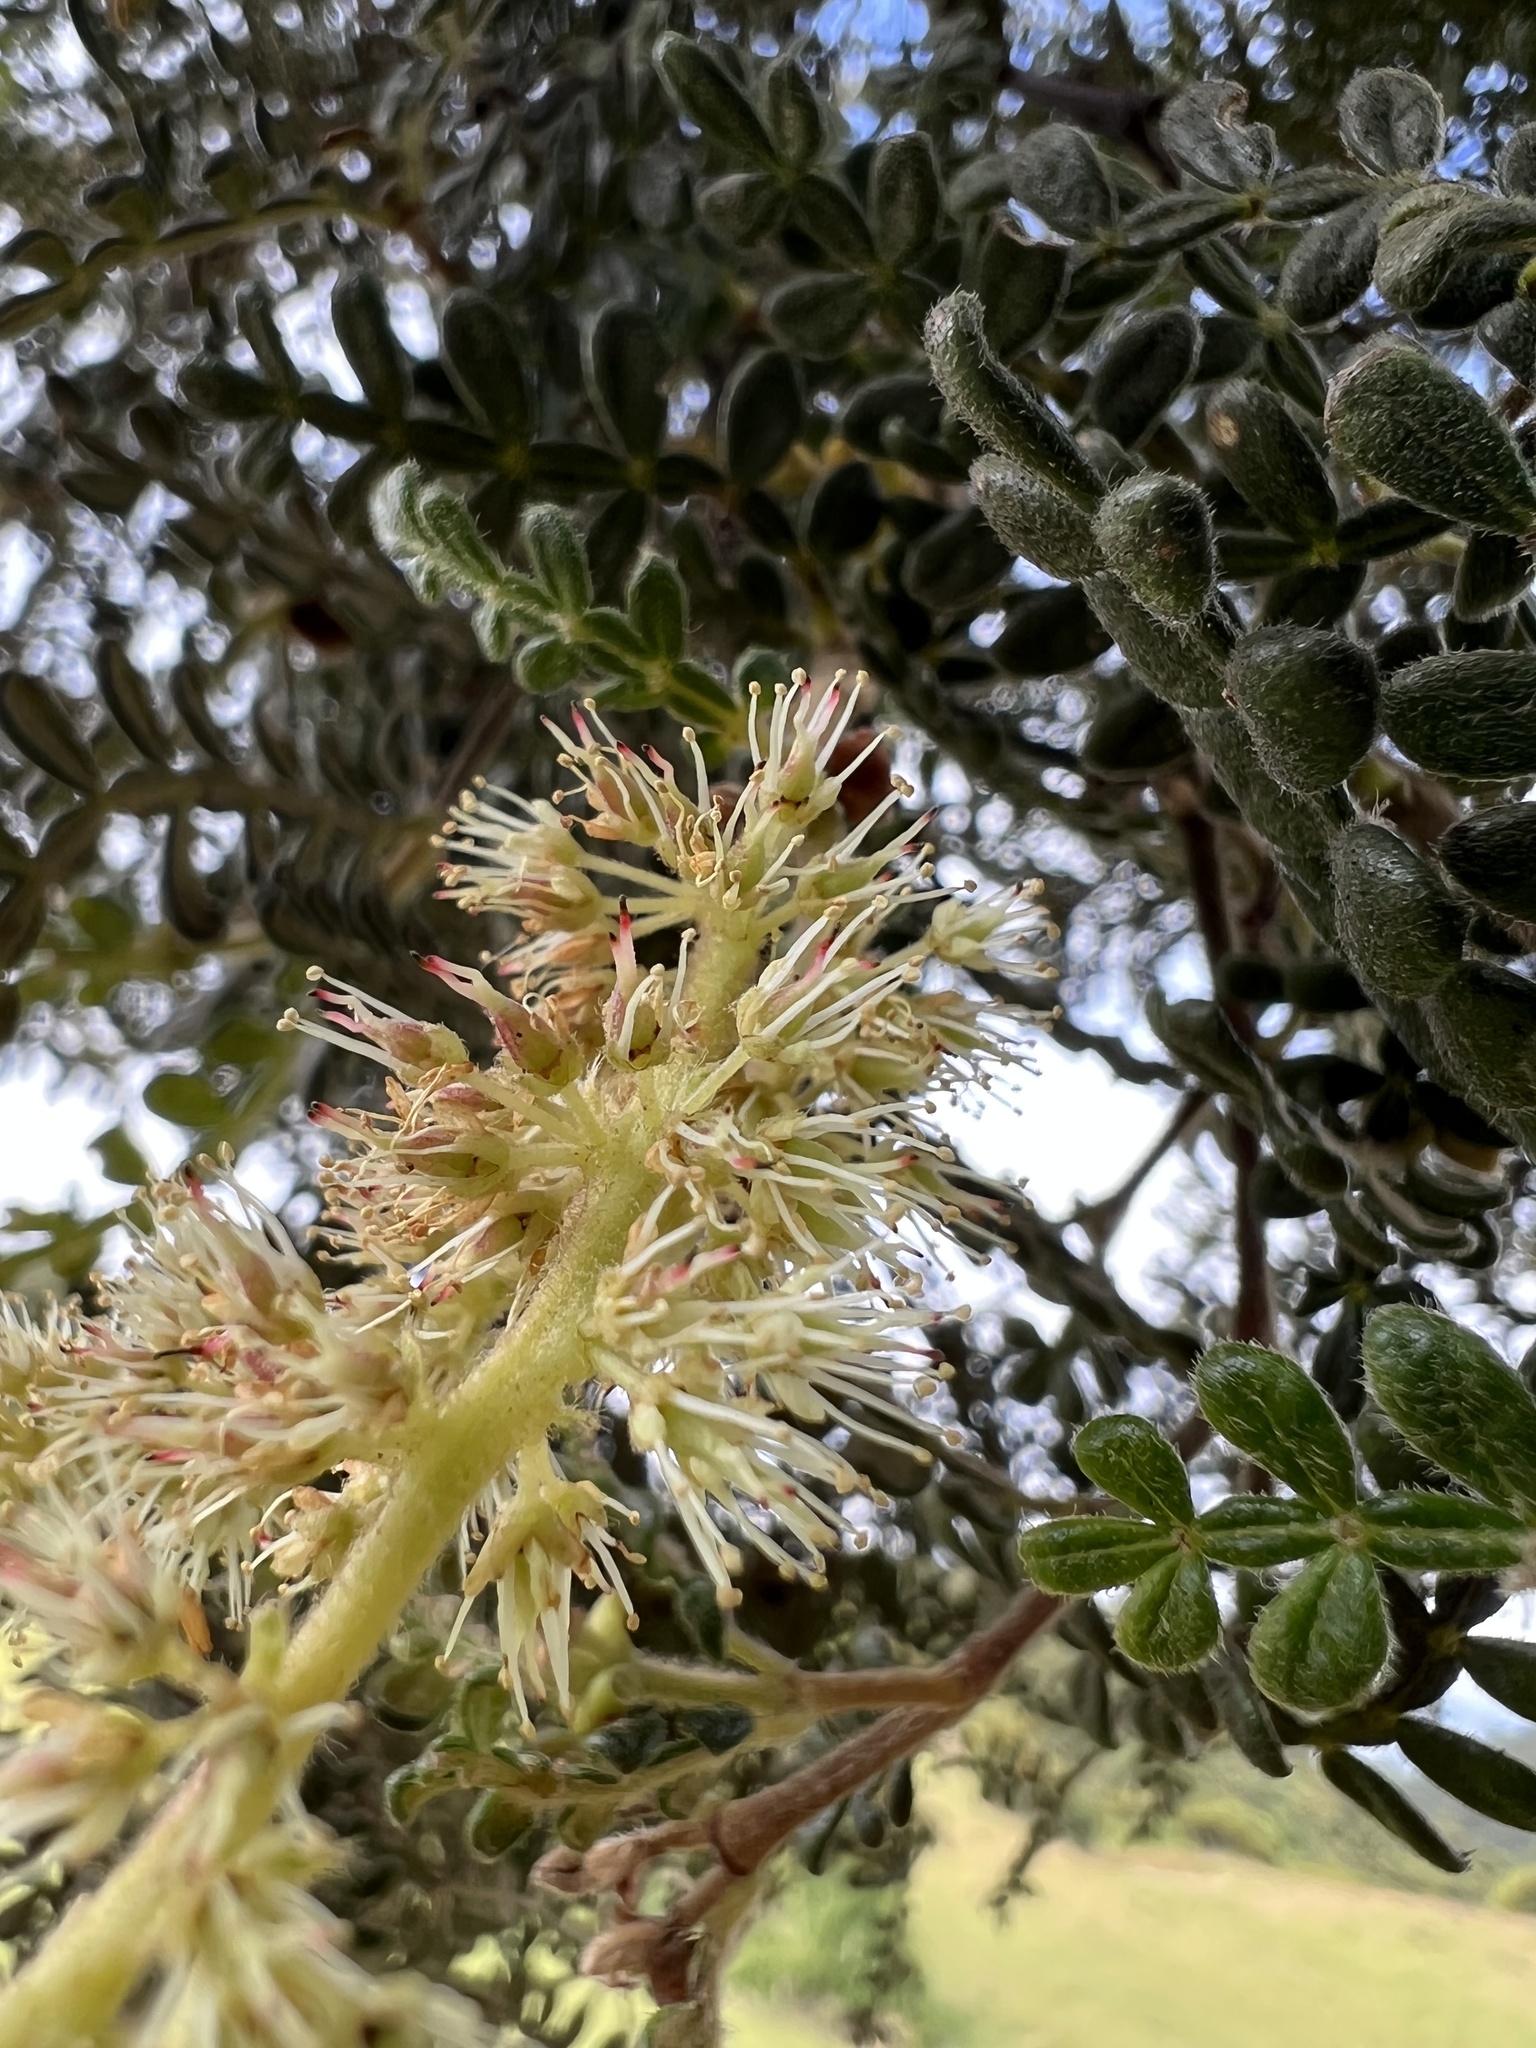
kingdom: Plantae
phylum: Tracheophyta
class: Magnoliopsida
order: Oxalidales
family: Cunoniaceae
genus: Weinmannia
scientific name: Weinmannia tomentosa
